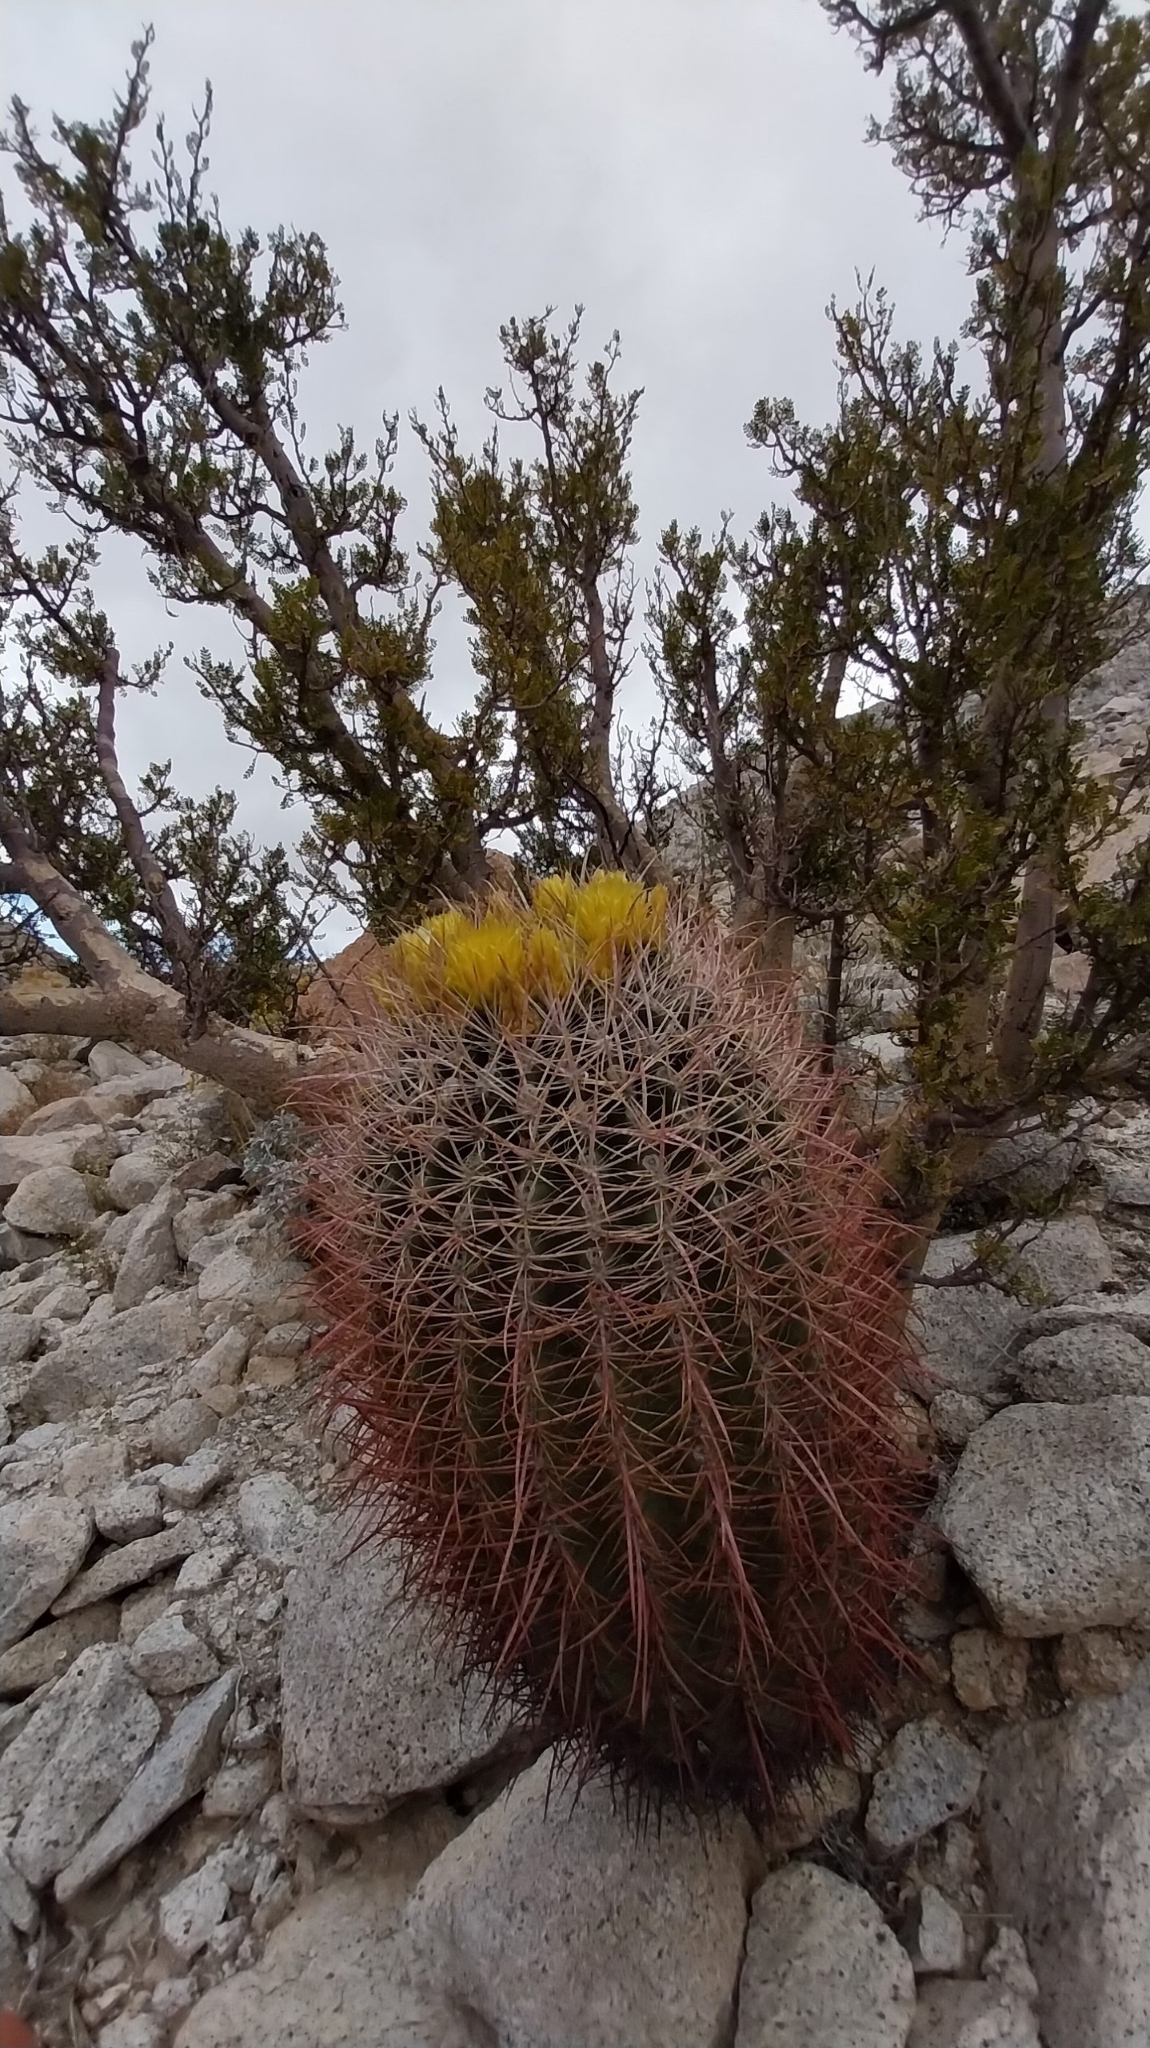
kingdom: Plantae
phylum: Tracheophyta
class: Magnoliopsida
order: Caryophyllales
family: Cactaceae
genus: Ferocactus
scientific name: Ferocactus cylindraceus
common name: California barrel cactus
